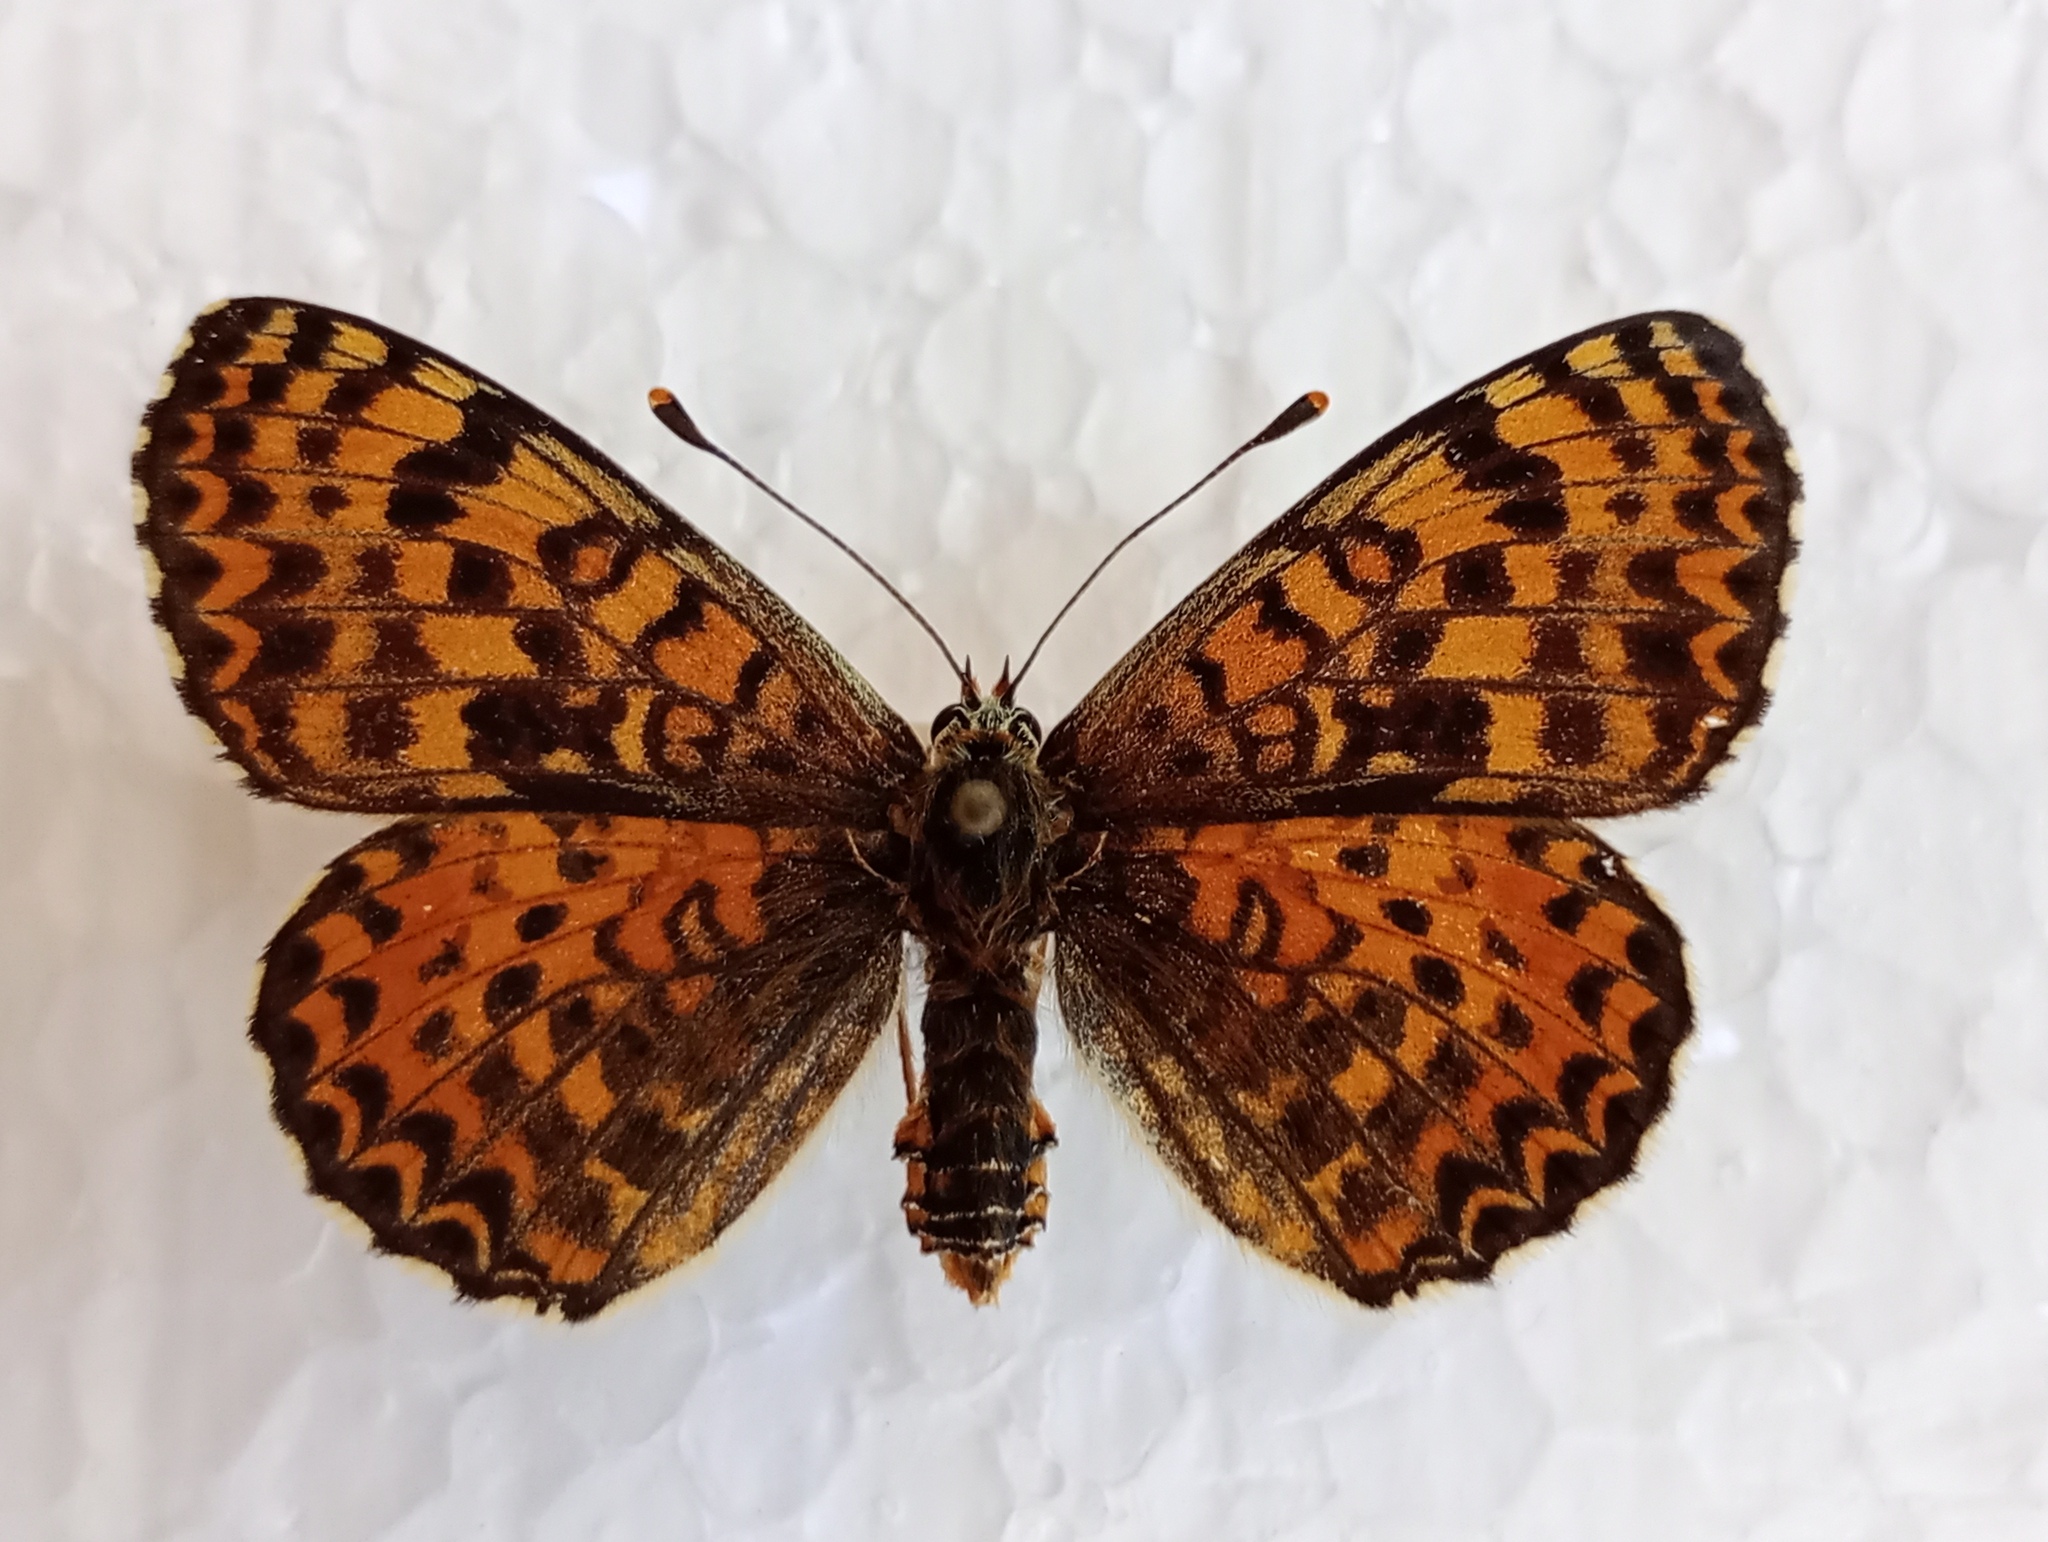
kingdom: Animalia
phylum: Arthropoda
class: Insecta
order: Lepidoptera
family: Nymphalidae
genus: Melitaea
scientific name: Melitaea didyma
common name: Spotted fritillary
